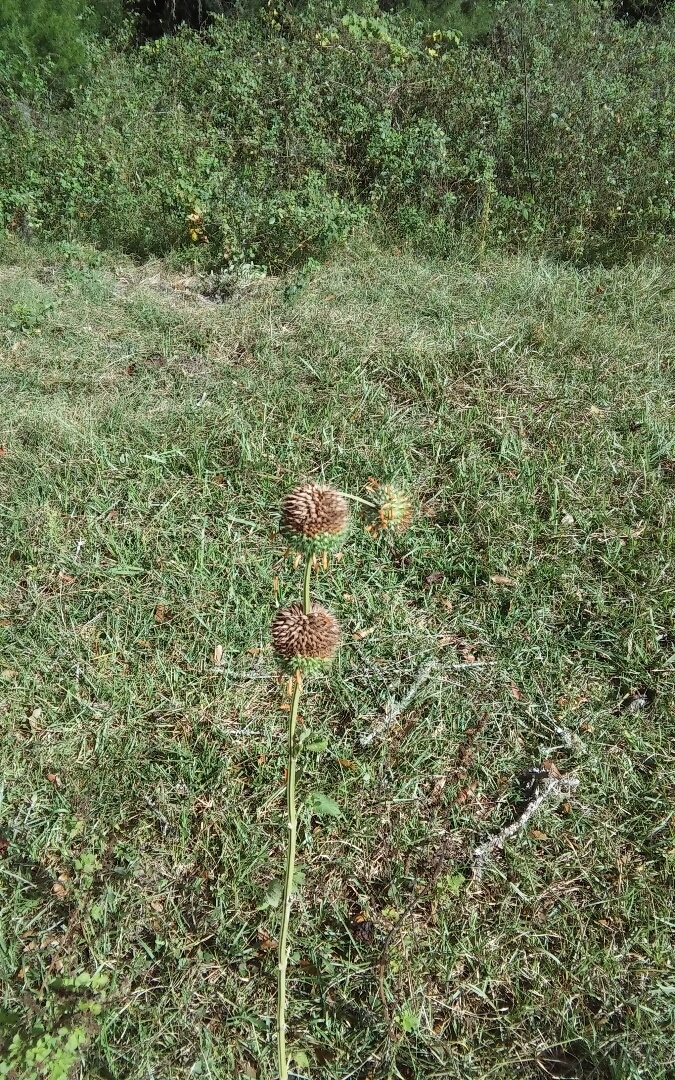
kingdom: Plantae
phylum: Tracheophyta
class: Magnoliopsida
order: Lamiales
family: Lamiaceae
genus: Leonotis
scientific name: Leonotis nepetifolia
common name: Christmas candlestick
